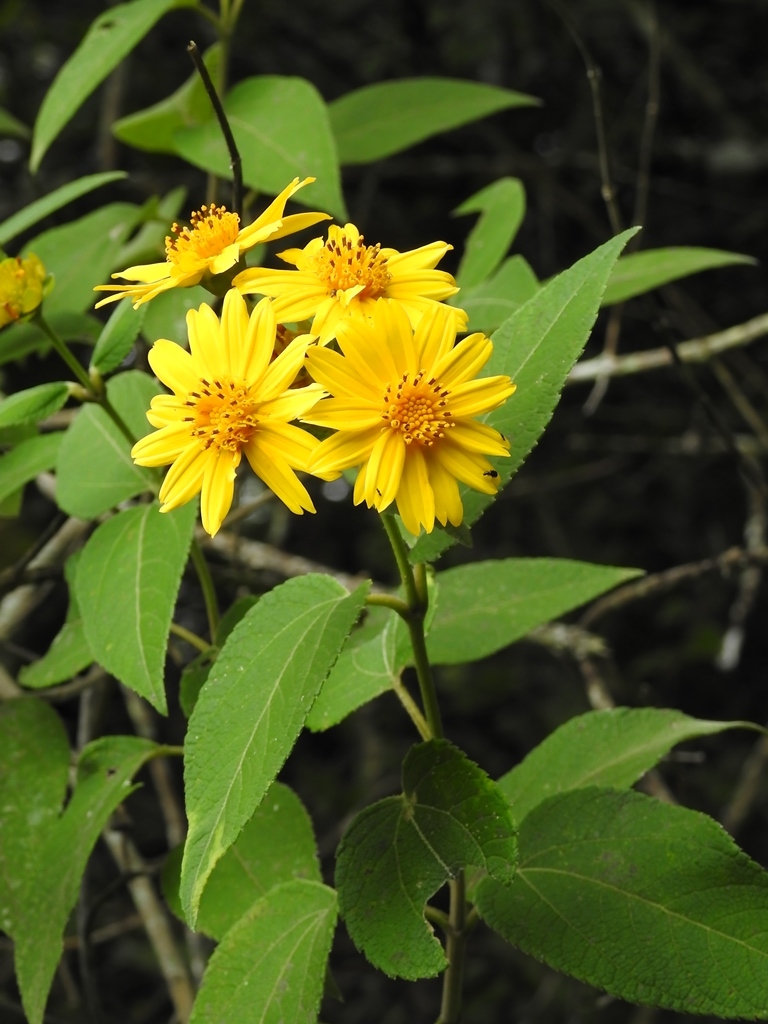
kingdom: Plantae
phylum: Tracheophyta
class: Magnoliopsida
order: Asterales
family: Asteraceae
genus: Lasianthaea
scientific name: Lasianthaea fruticosa
